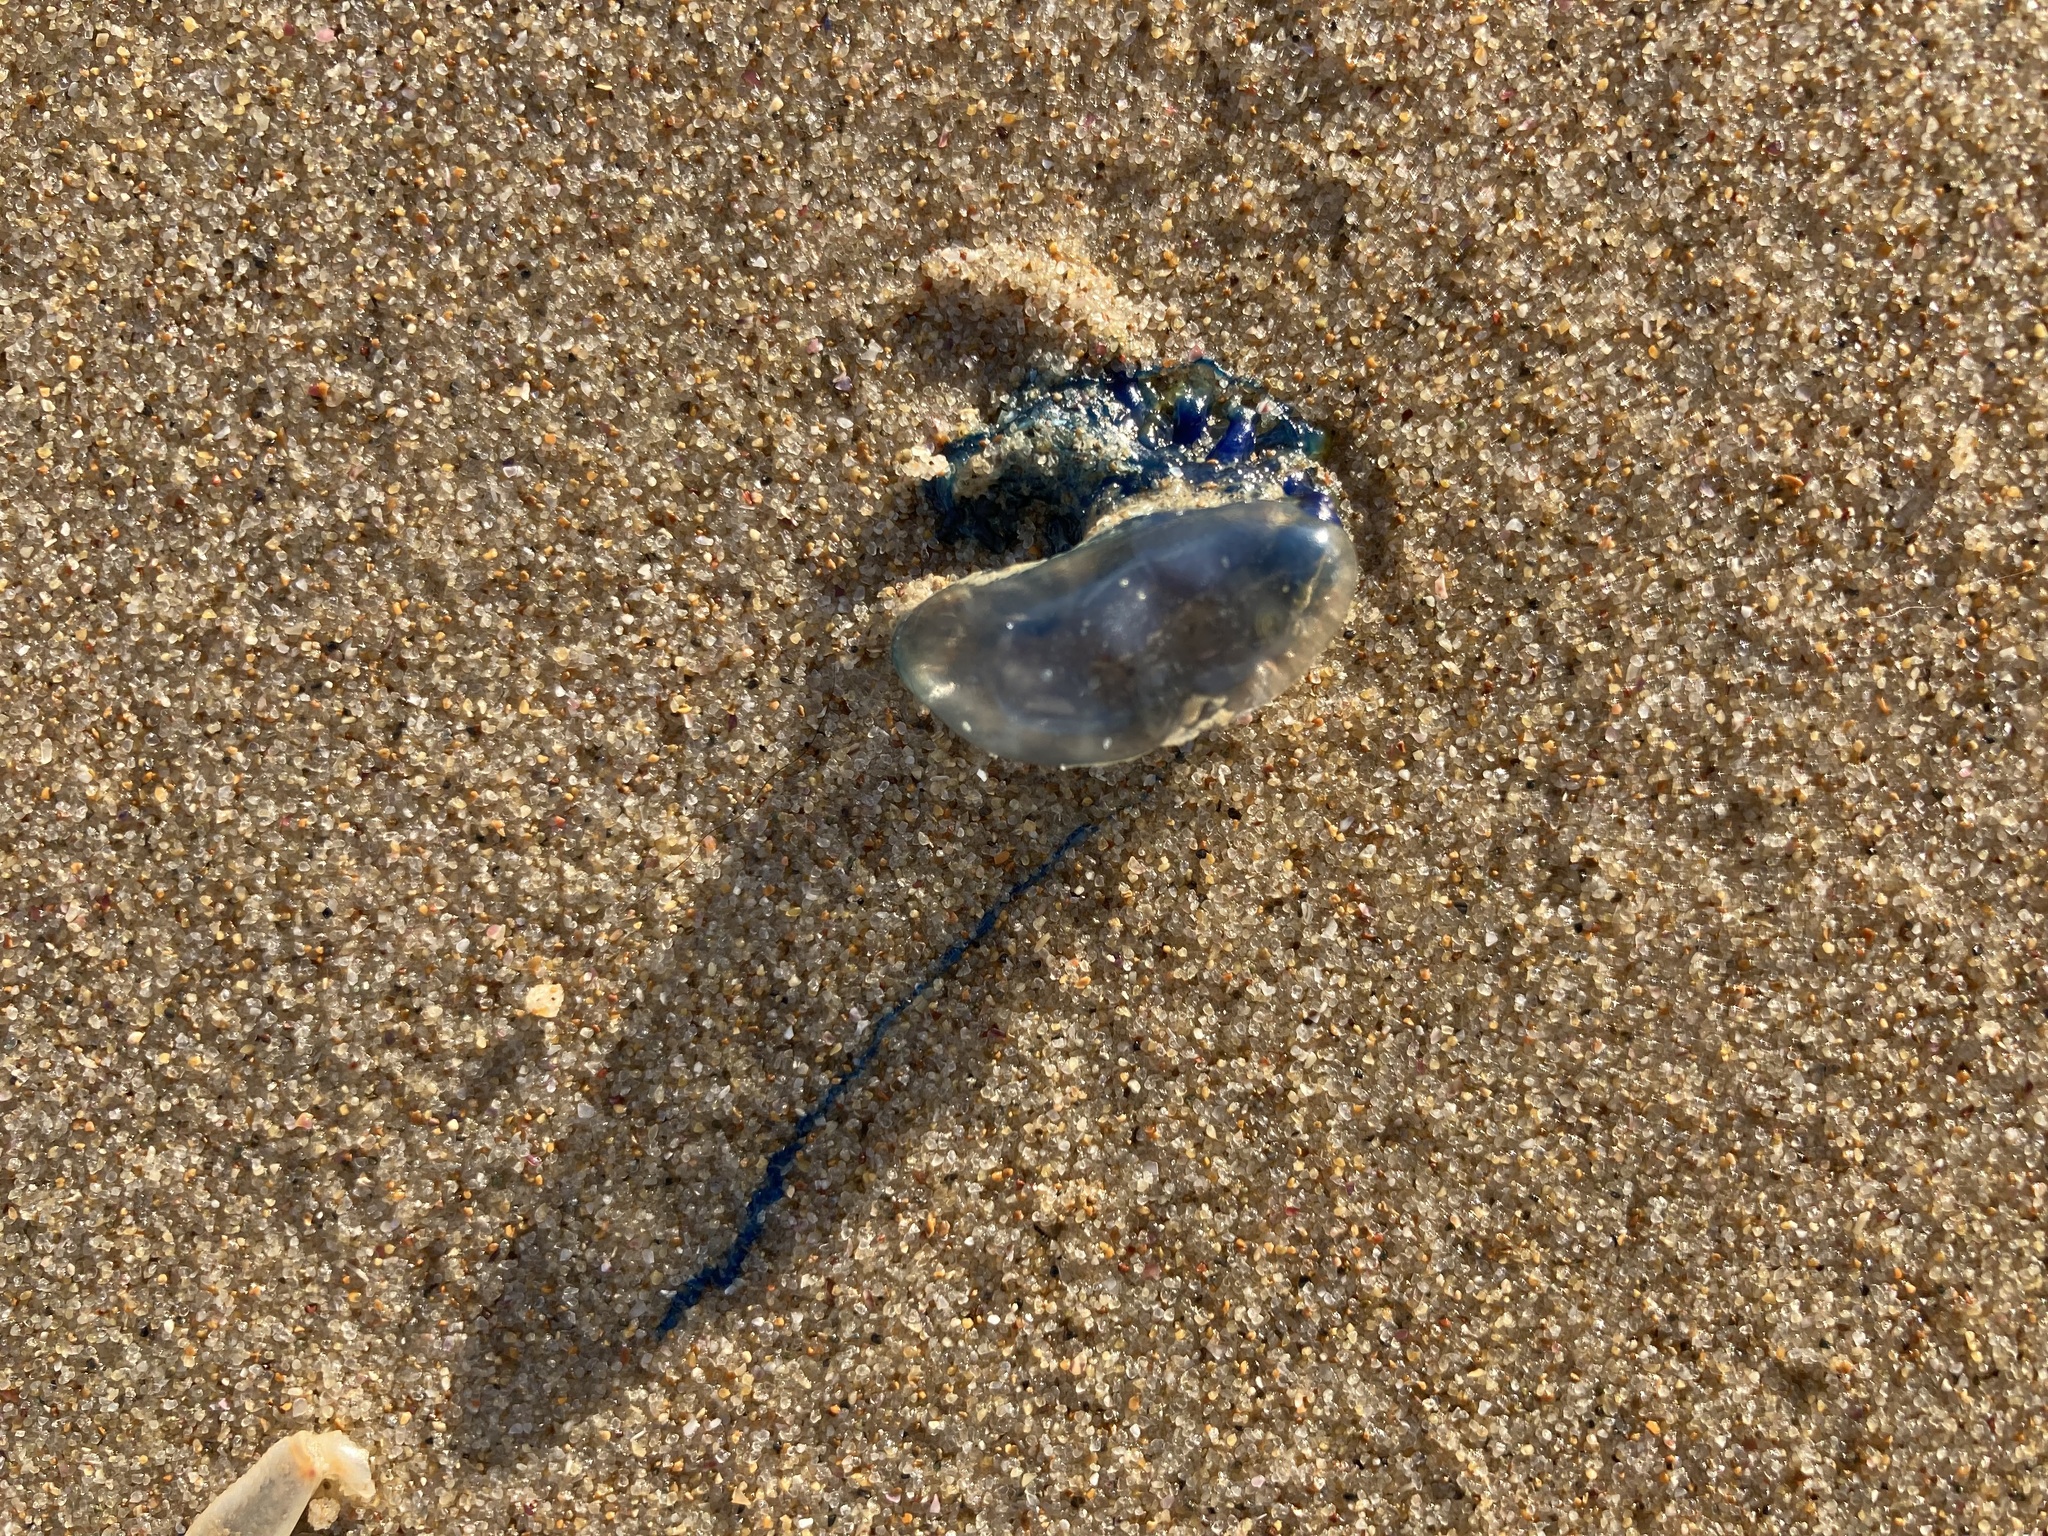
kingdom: Animalia
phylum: Cnidaria
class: Hydrozoa
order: Siphonophorae
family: Physaliidae
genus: Physalia
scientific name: Physalia physalis
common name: Portuguese man-of-war
